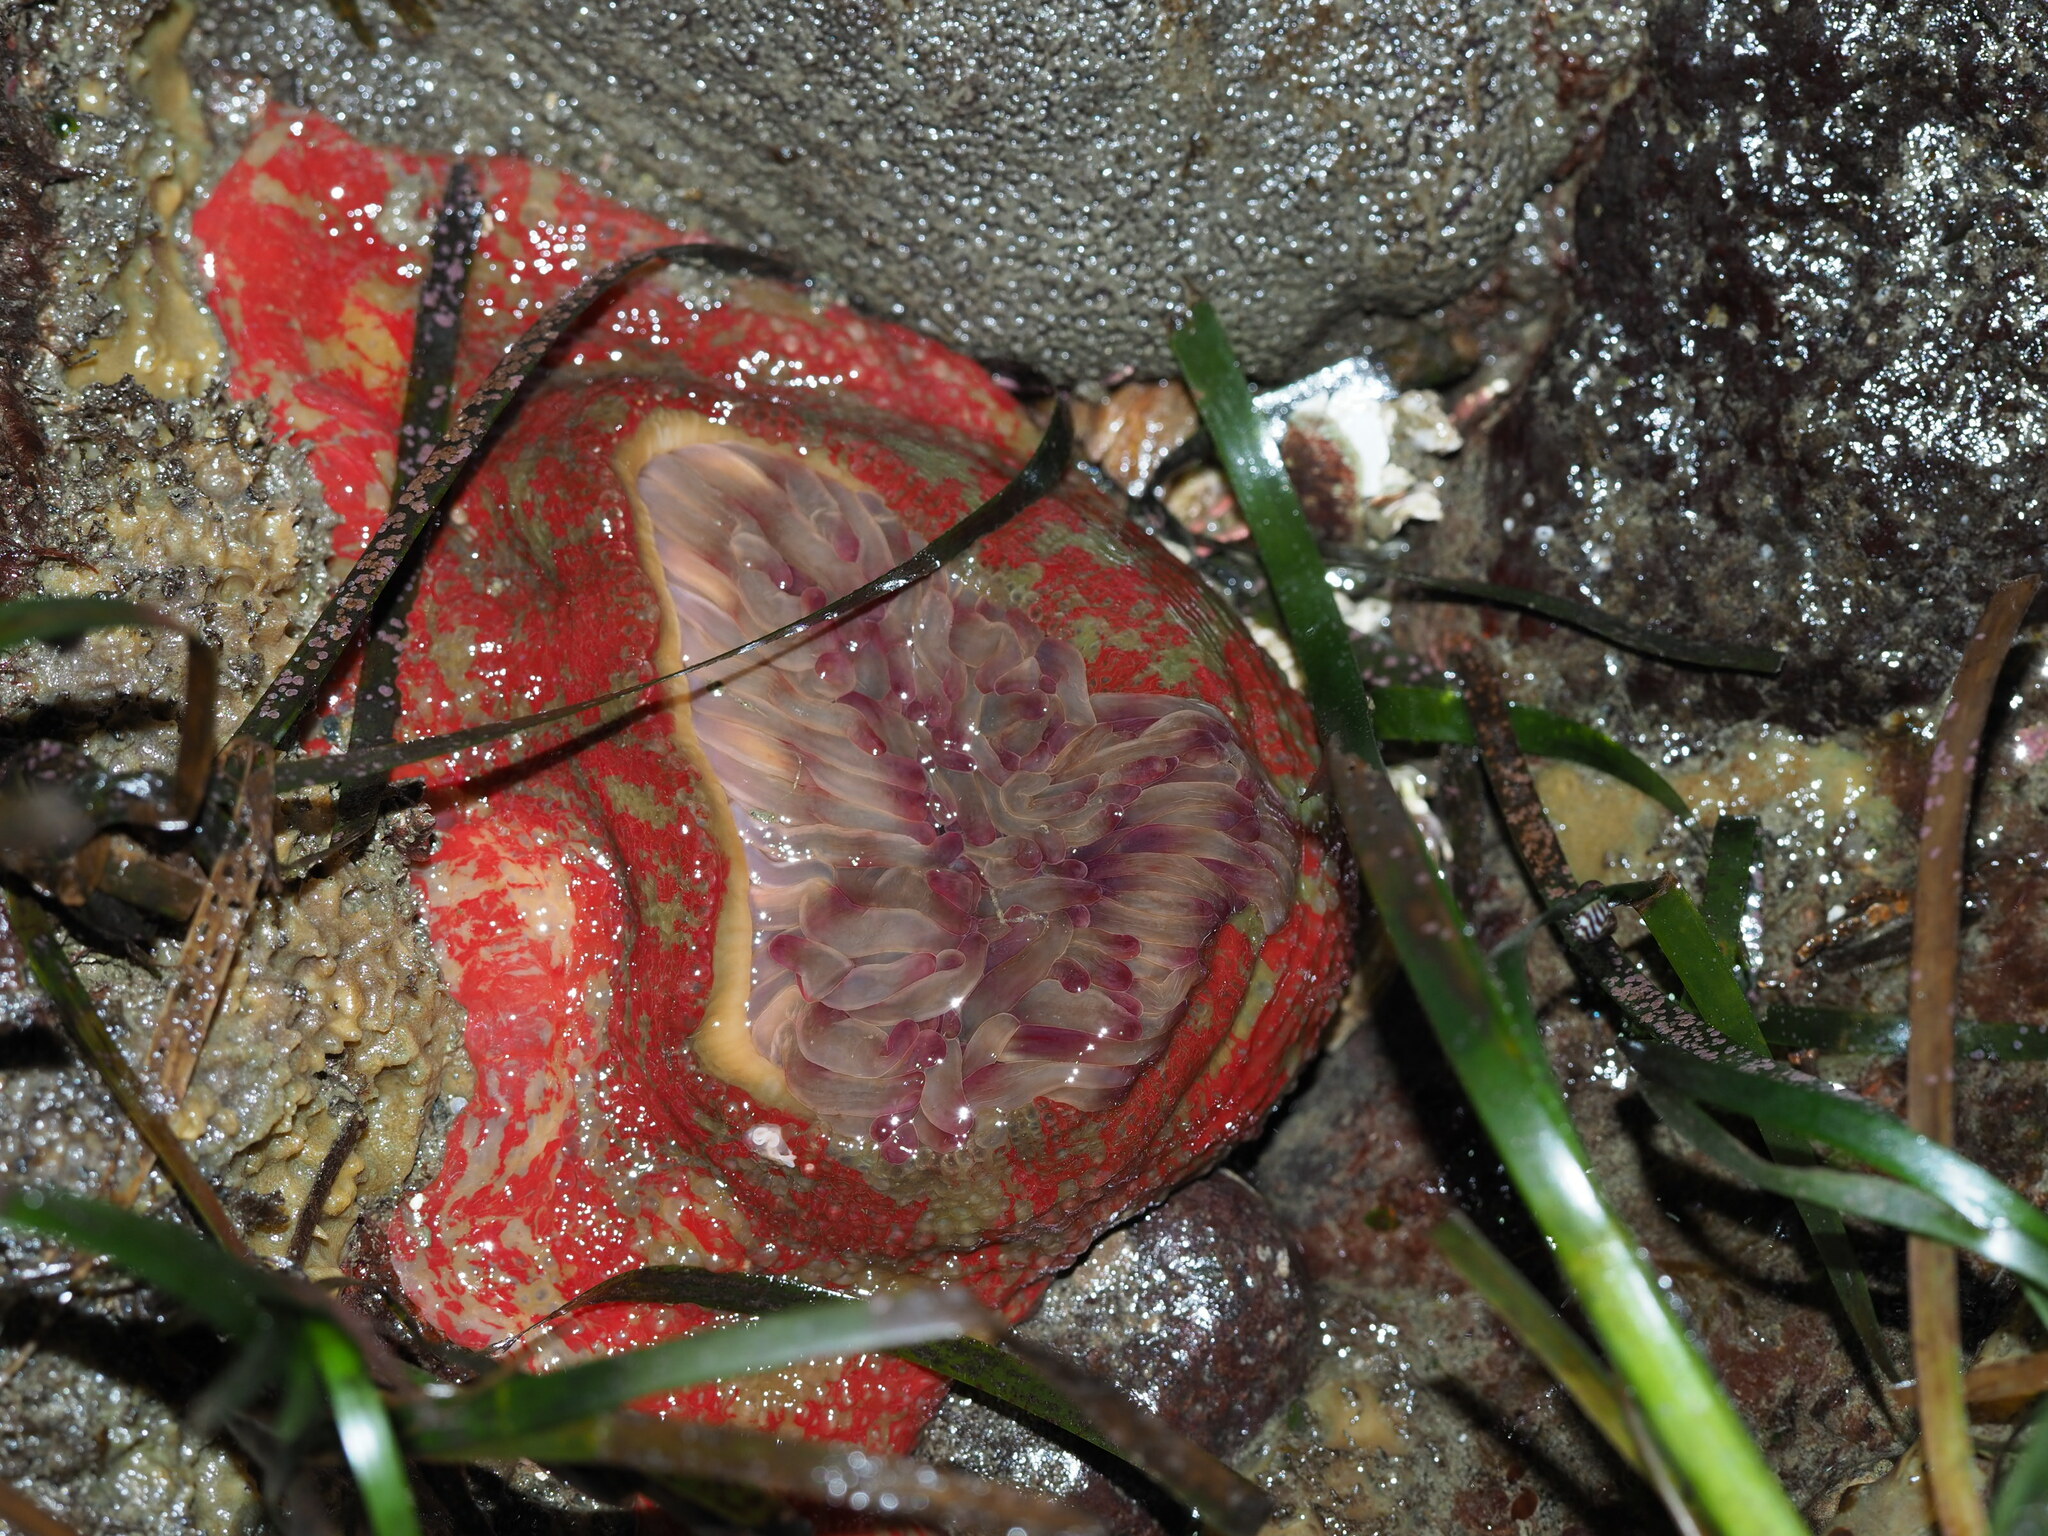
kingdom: Animalia
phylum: Cnidaria
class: Anthozoa
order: Actiniaria
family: Actiniidae
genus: Urticina
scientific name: Urticina grebelnyi
